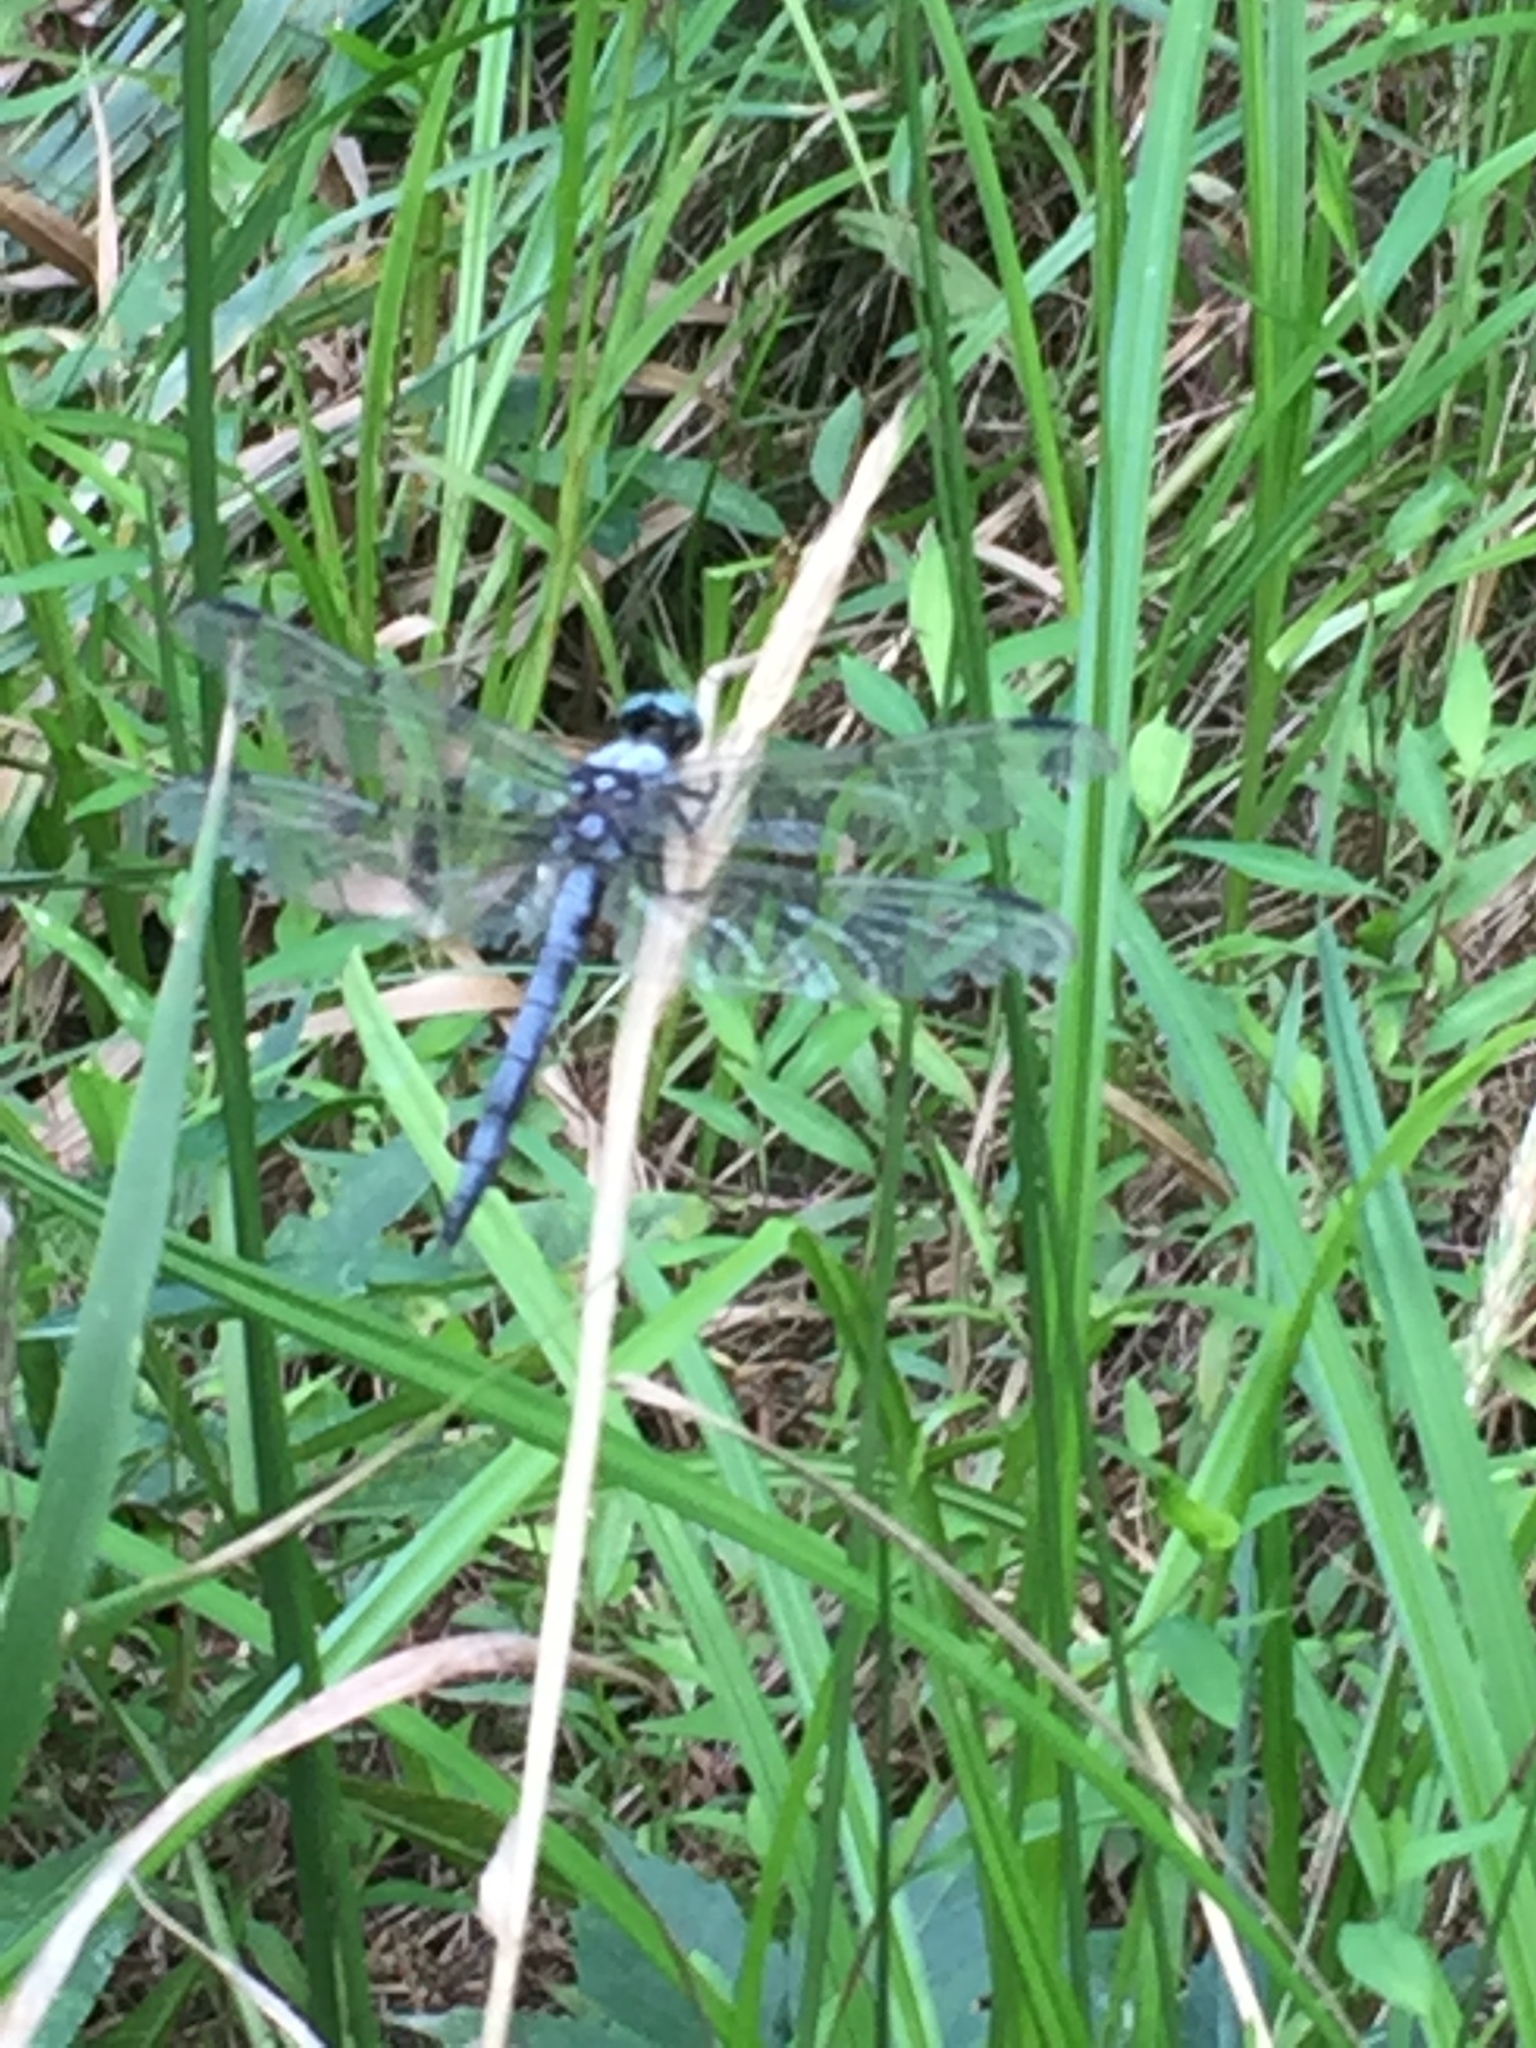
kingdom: Animalia
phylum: Arthropoda
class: Insecta
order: Odonata
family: Libellulidae
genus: Libellula
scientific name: Libellula vibrans
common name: Great blue skimmer
